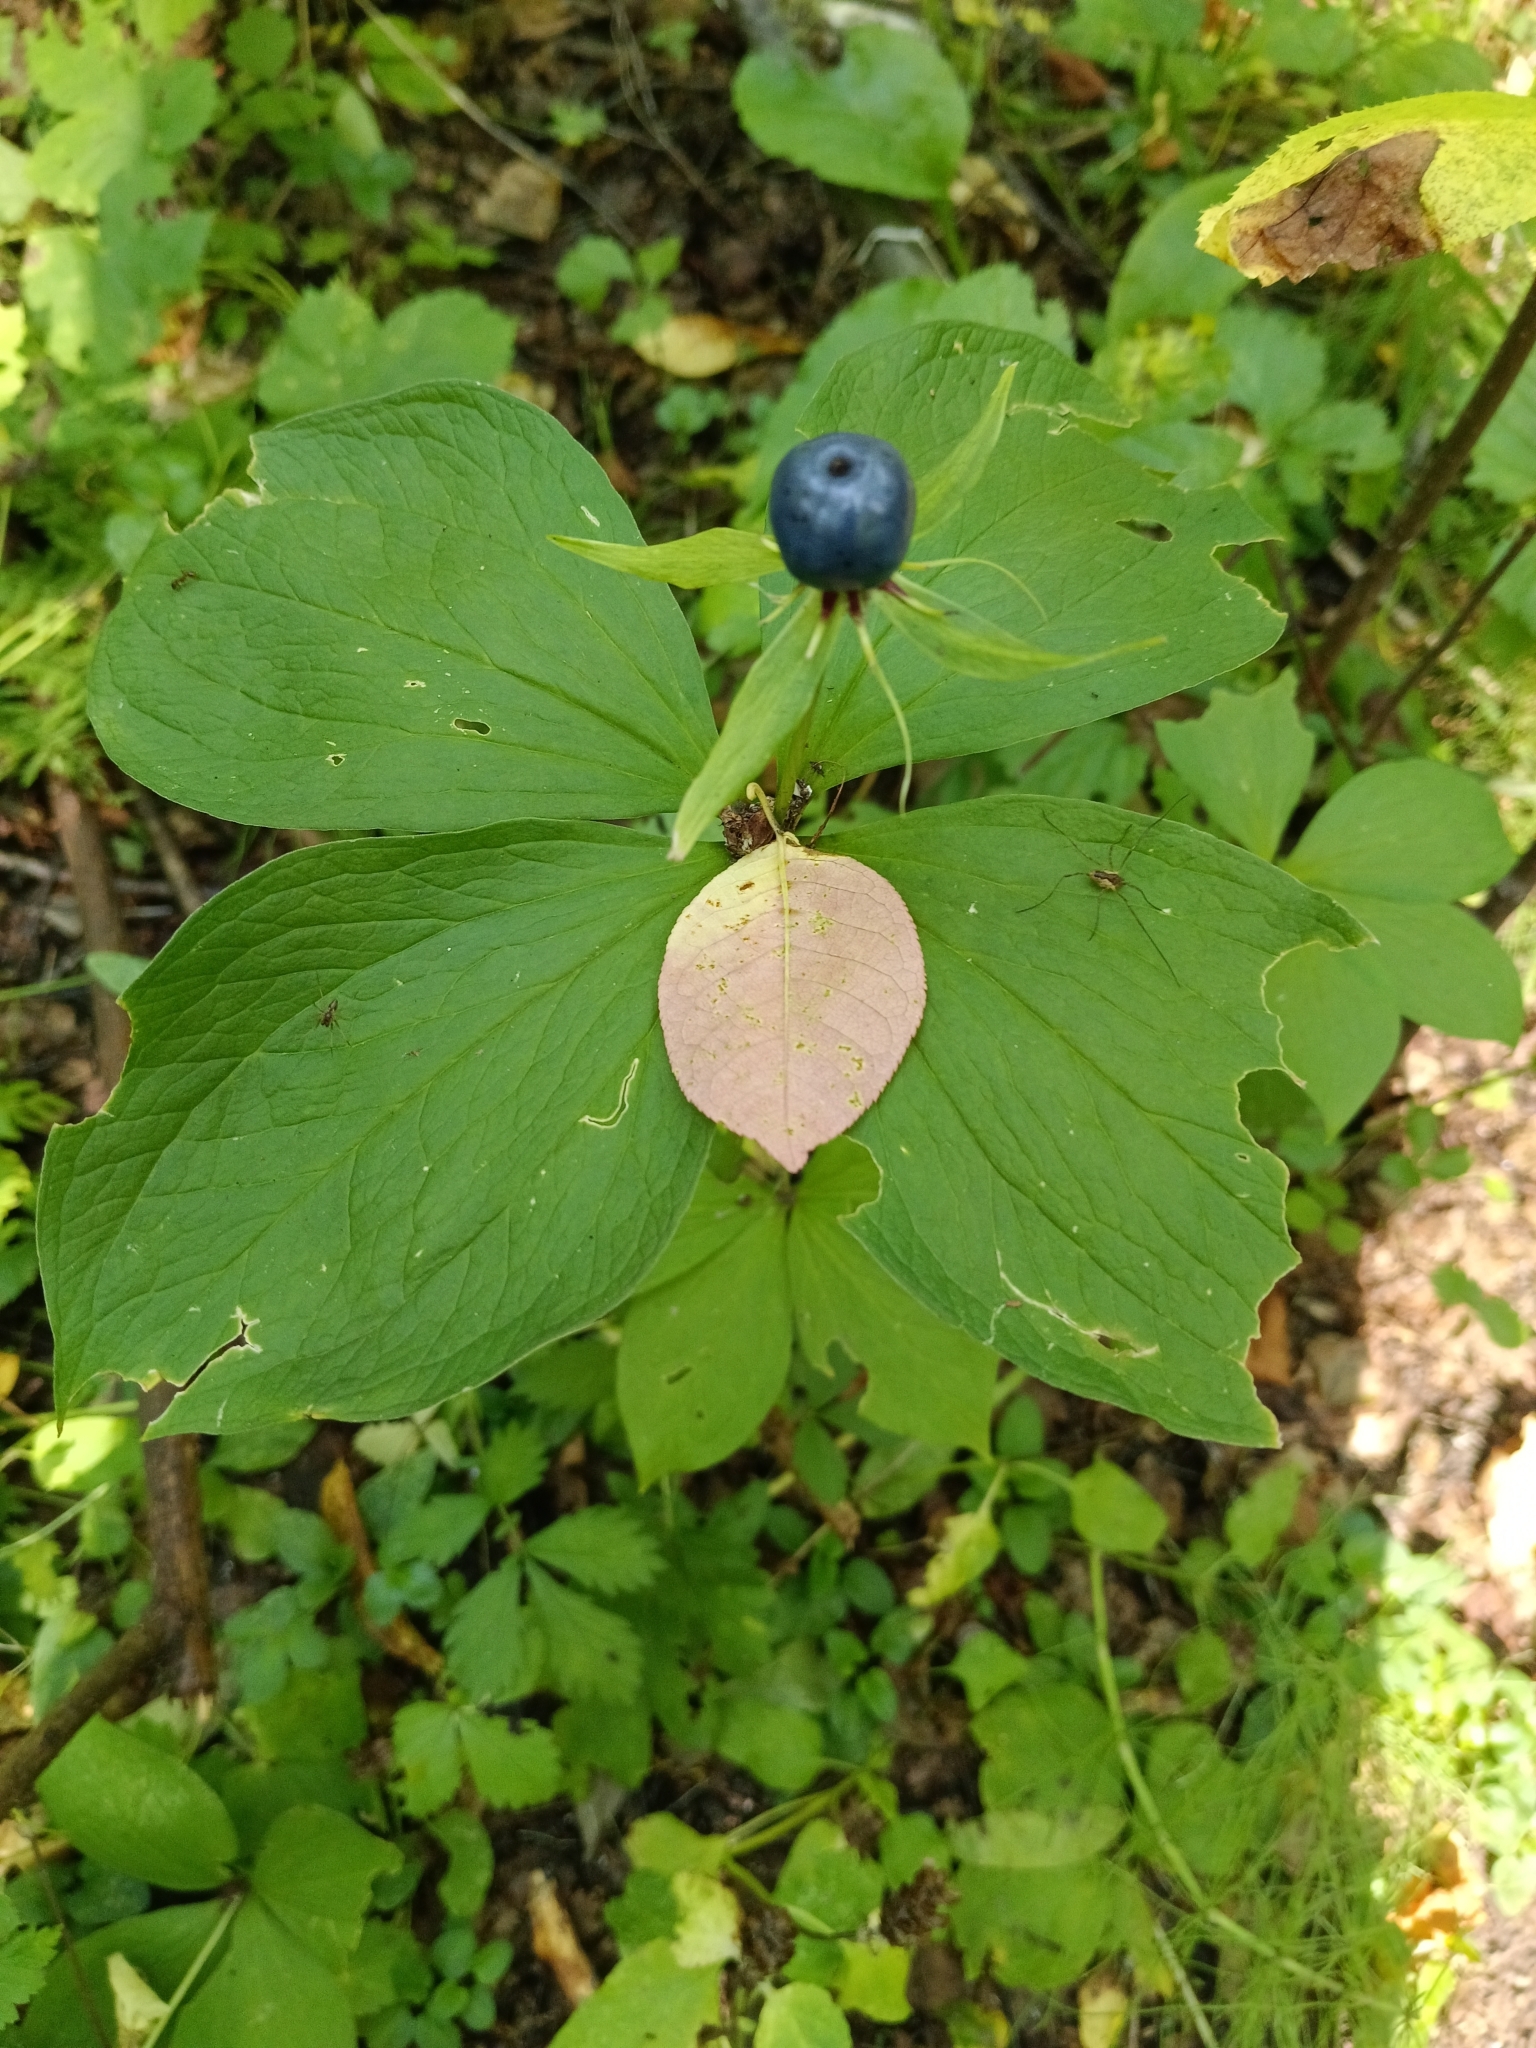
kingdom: Plantae
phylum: Tracheophyta
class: Liliopsida
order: Liliales
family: Melanthiaceae
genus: Paris
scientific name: Paris quadrifolia
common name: Herb-paris
